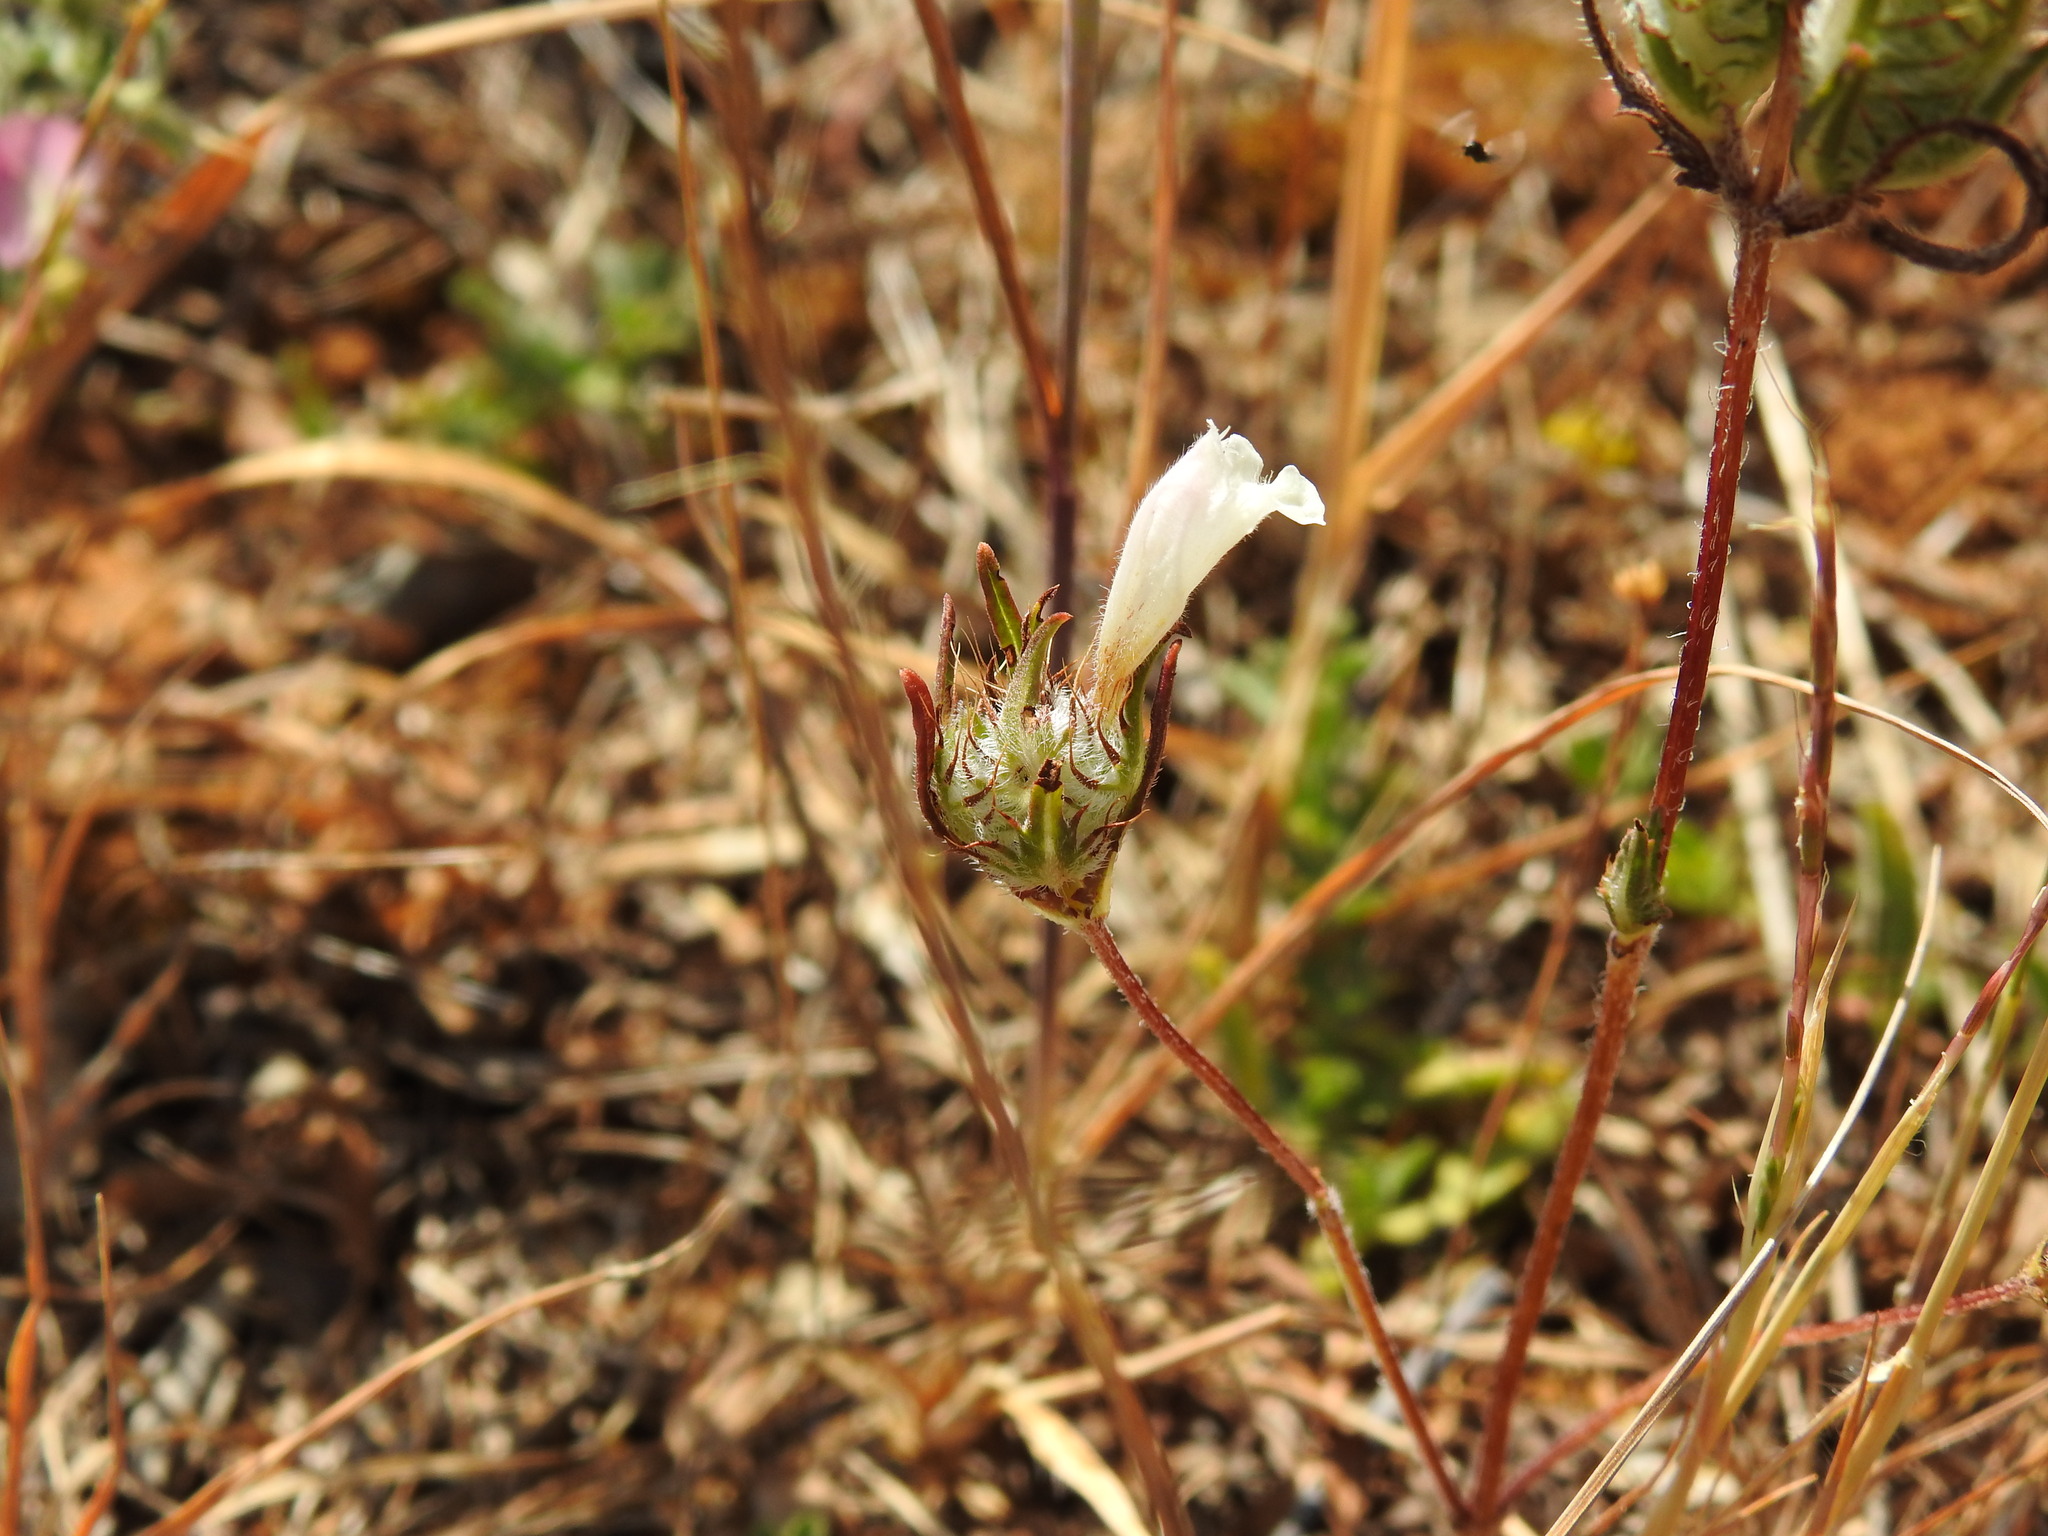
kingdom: Plantae
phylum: Tracheophyta
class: Magnoliopsida
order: Lamiales
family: Lamiaceae
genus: Cleonia
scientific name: Cleonia lusitanica
